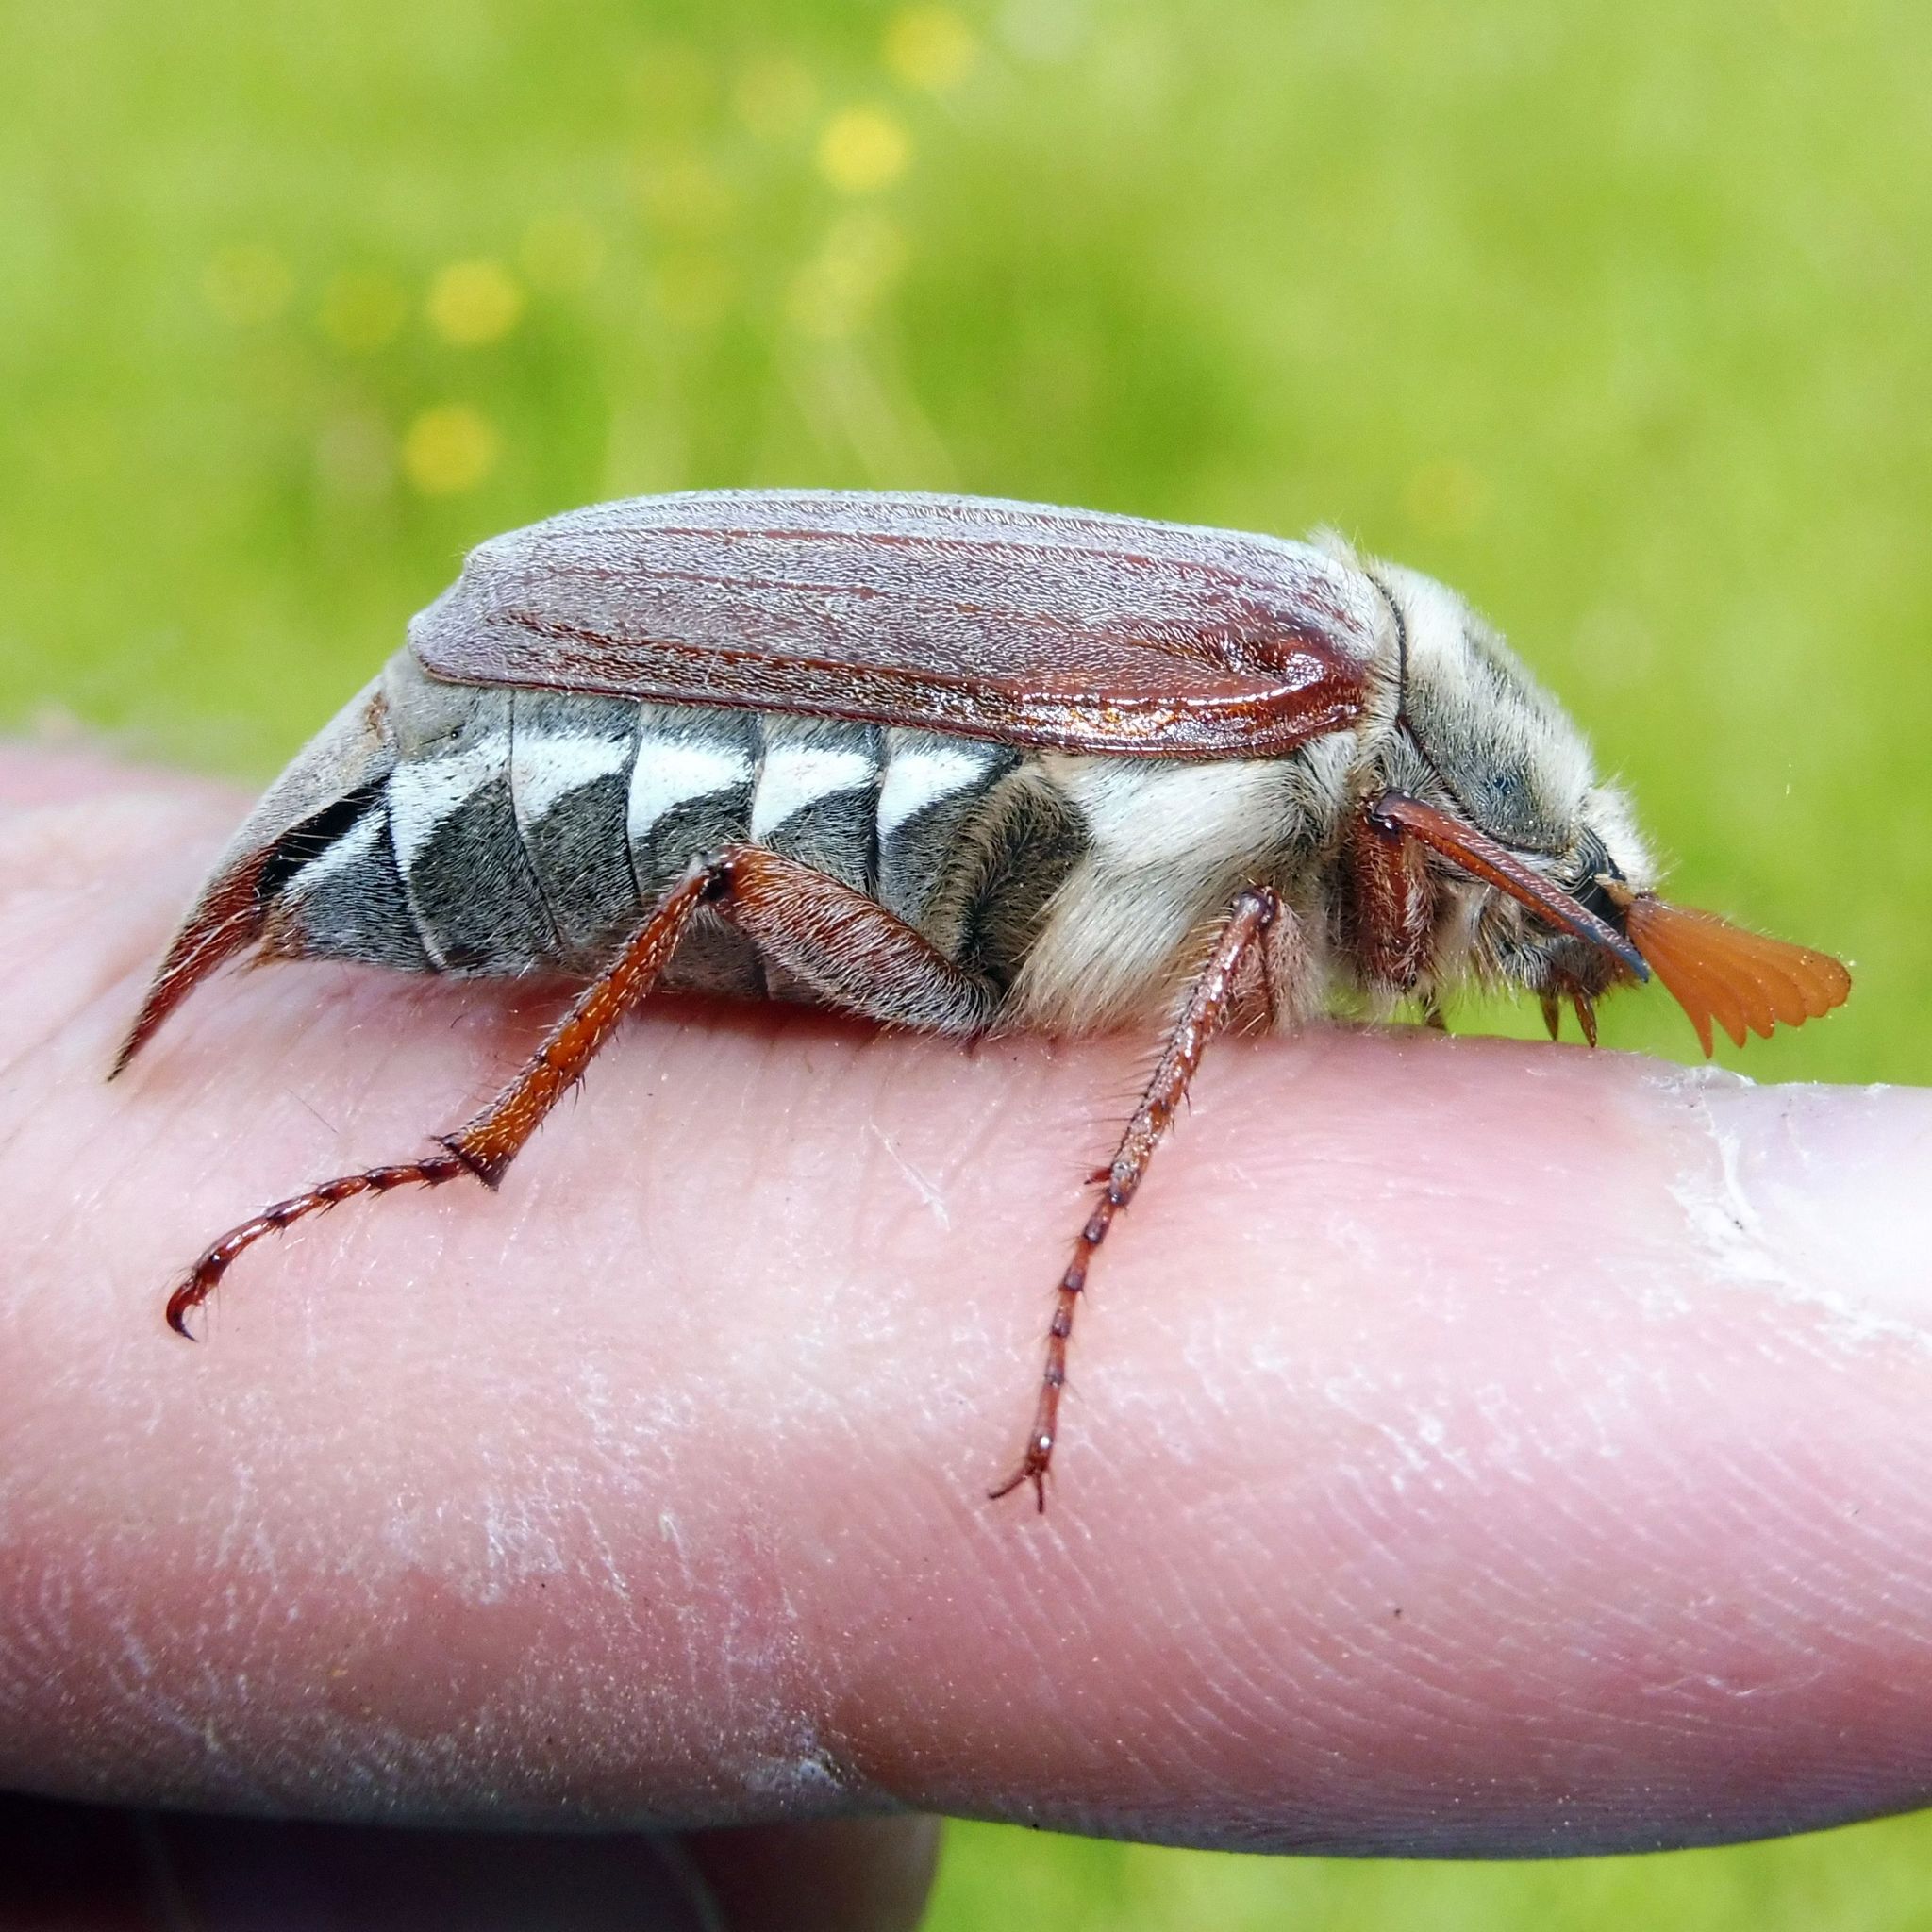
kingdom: Animalia
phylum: Arthropoda
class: Insecta
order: Coleoptera
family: Scarabaeidae
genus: Melolontha
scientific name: Melolontha melolontha
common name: Cockchafer maybeetle
